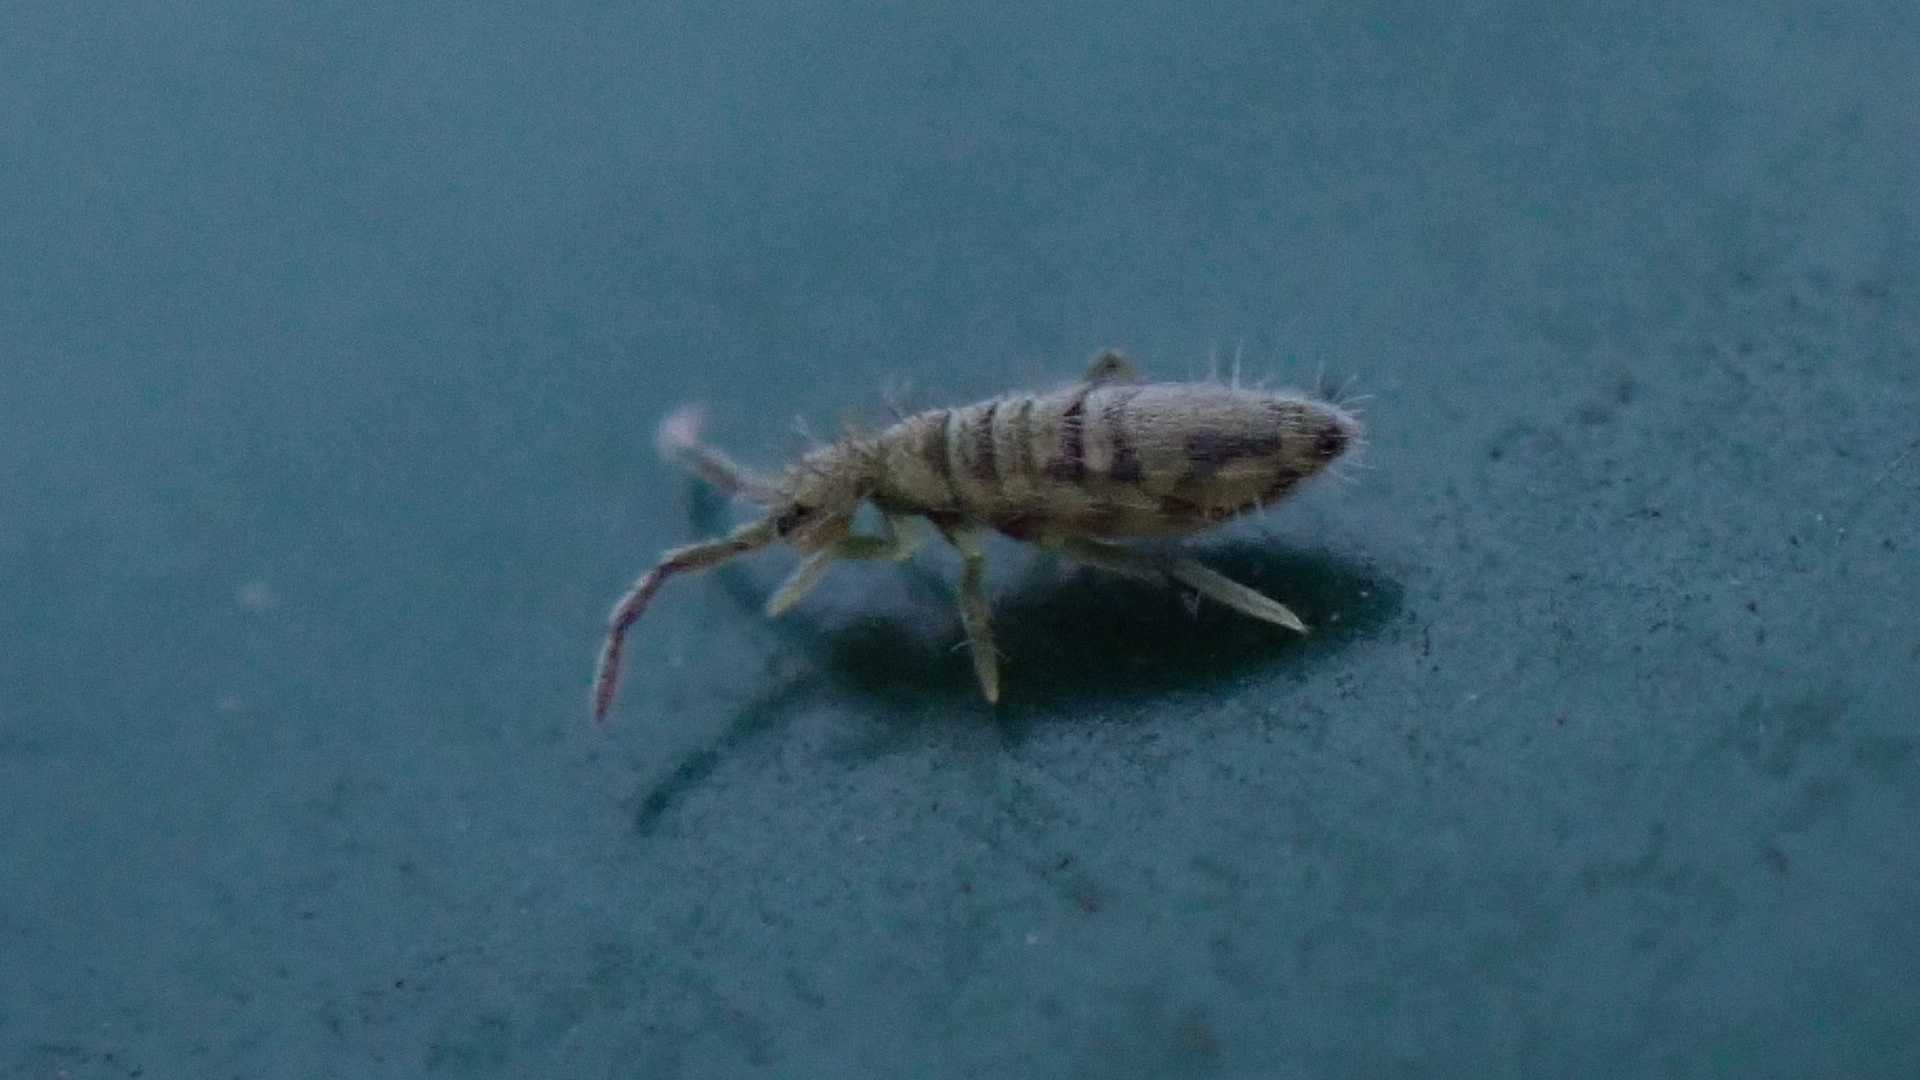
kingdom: Animalia
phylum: Arthropoda
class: Collembola
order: Entomobryomorpha
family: Entomobryidae
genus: Entomobrya
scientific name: Entomobrya nivalis
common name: Cosmopolitan springtail
